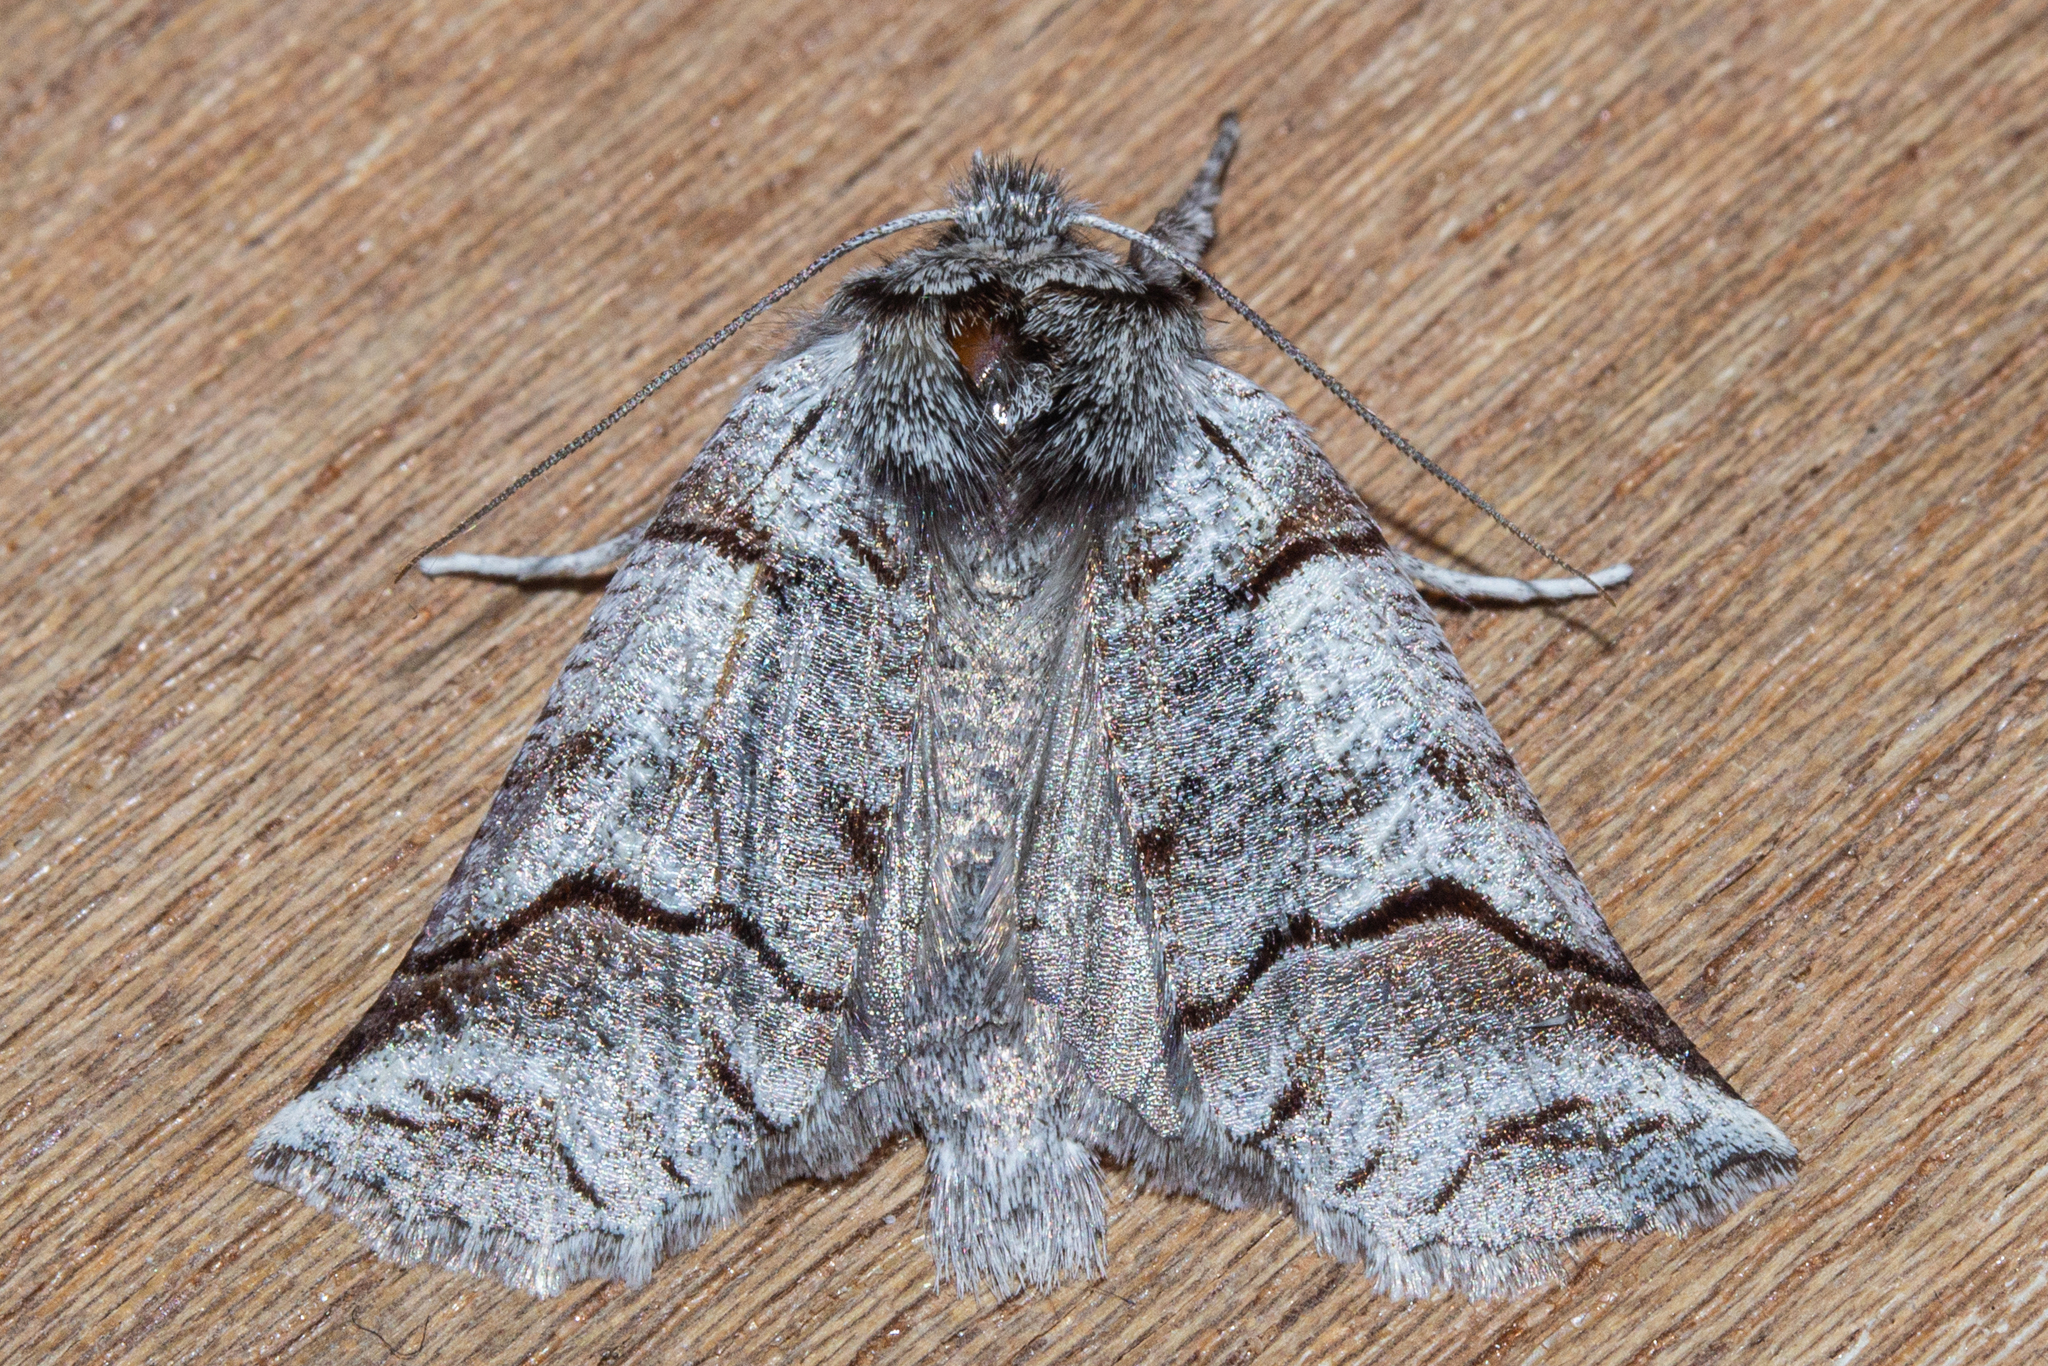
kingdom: Animalia
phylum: Arthropoda
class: Insecta
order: Lepidoptera
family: Geometridae
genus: Declana
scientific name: Declana
